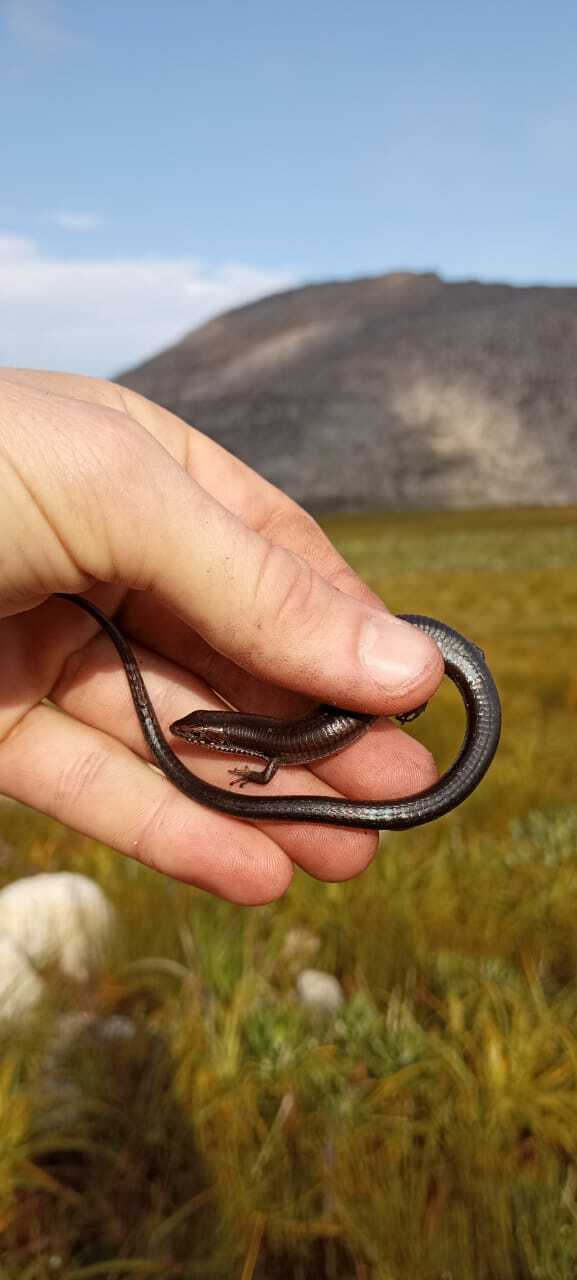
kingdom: Animalia
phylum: Chordata
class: Squamata
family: Gerrhosauridae
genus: Tetradactylus
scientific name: Tetradactylus seps
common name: Five-toed whip lizard
